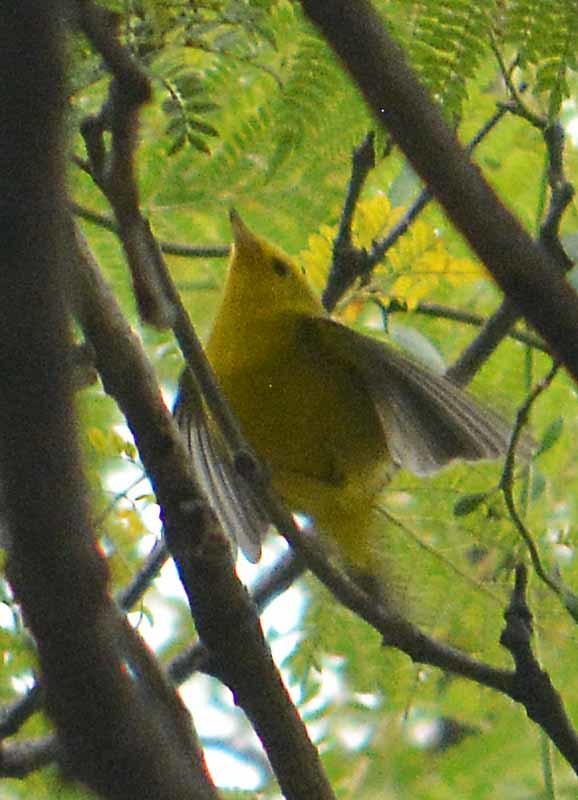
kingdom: Animalia
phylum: Chordata
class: Aves
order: Passeriformes
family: Parulidae
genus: Cardellina
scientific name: Cardellina pusilla
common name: Wilson's warbler
